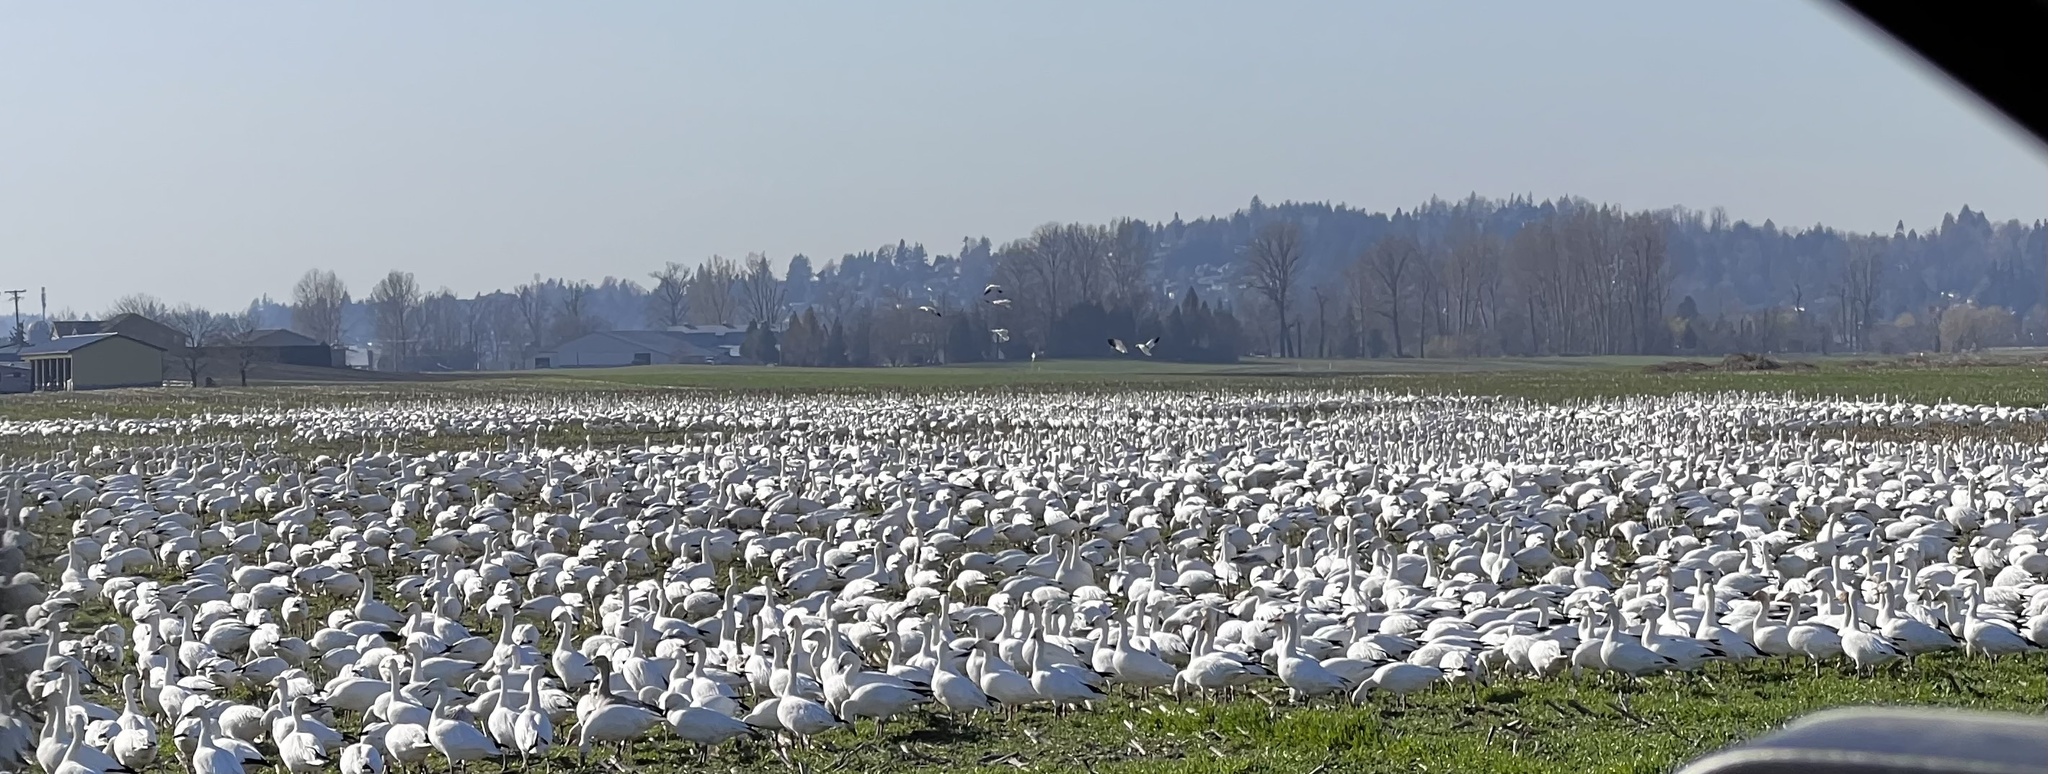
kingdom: Animalia
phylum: Chordata
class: Aves
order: Anseriformes
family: Anatidae
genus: Anser
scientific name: Anser caerulescens
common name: Snow goose
